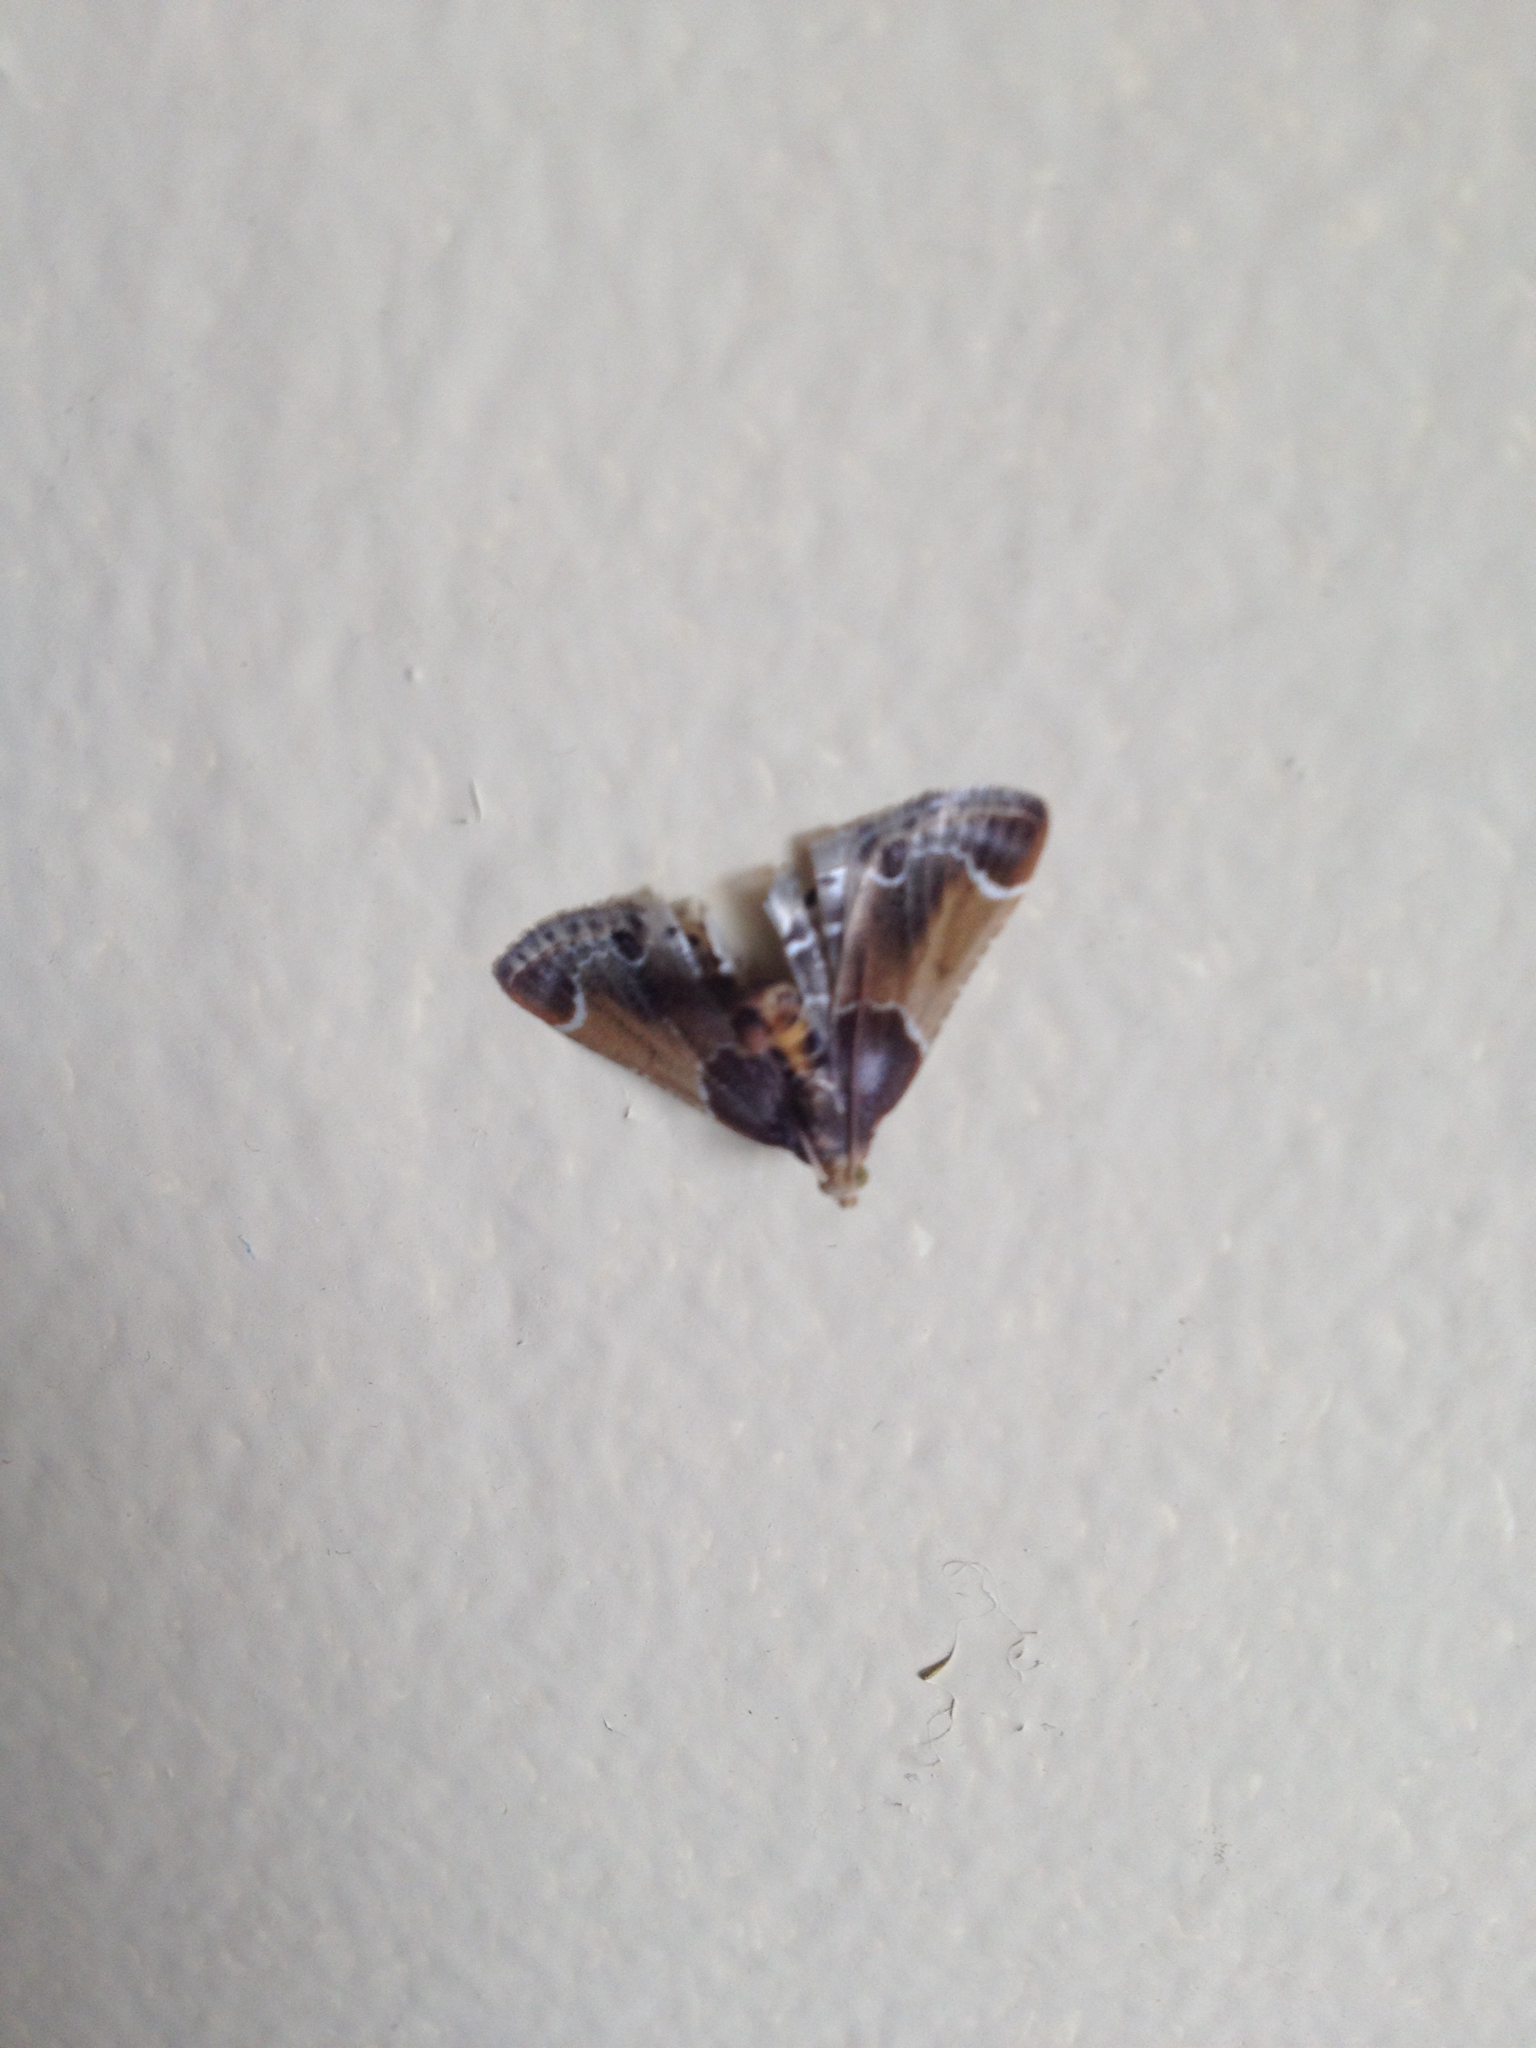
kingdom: Animalia
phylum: Arthropoda
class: Insecta
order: Lepidoptera
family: Pyralidae
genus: Pyralis
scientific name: Pyralis farinalis
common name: Meal moth
